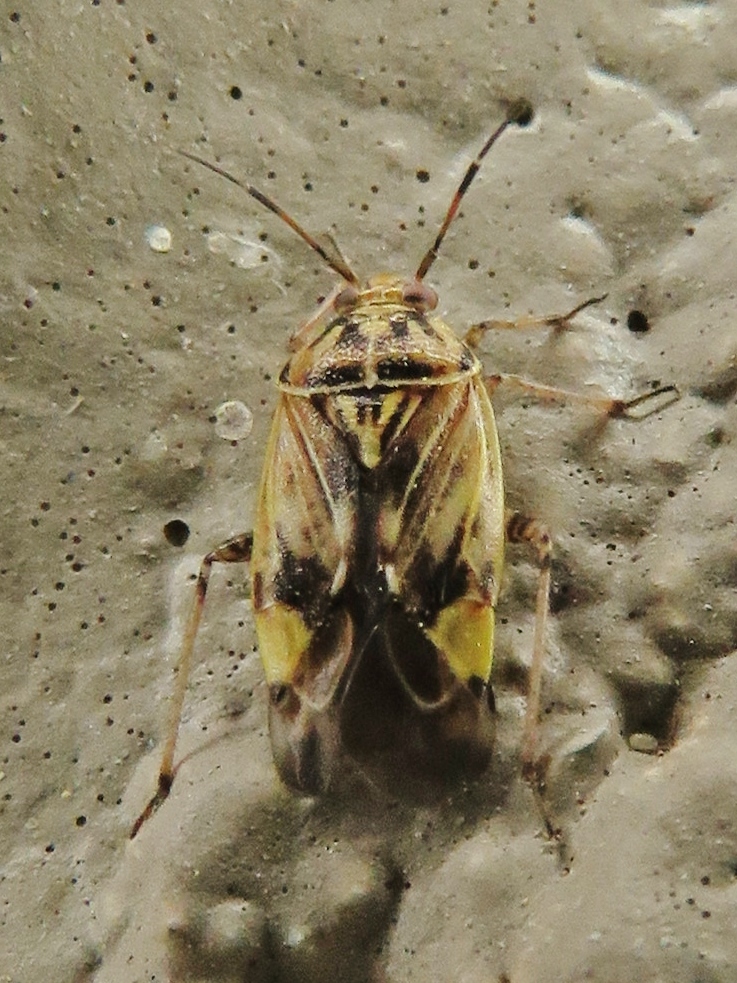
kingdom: Animalia
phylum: Arthropoda
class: Insecta
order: Hemiptera
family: Miridae
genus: Lygus
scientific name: Lygus lineolaris
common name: North american tarnished plant bug
